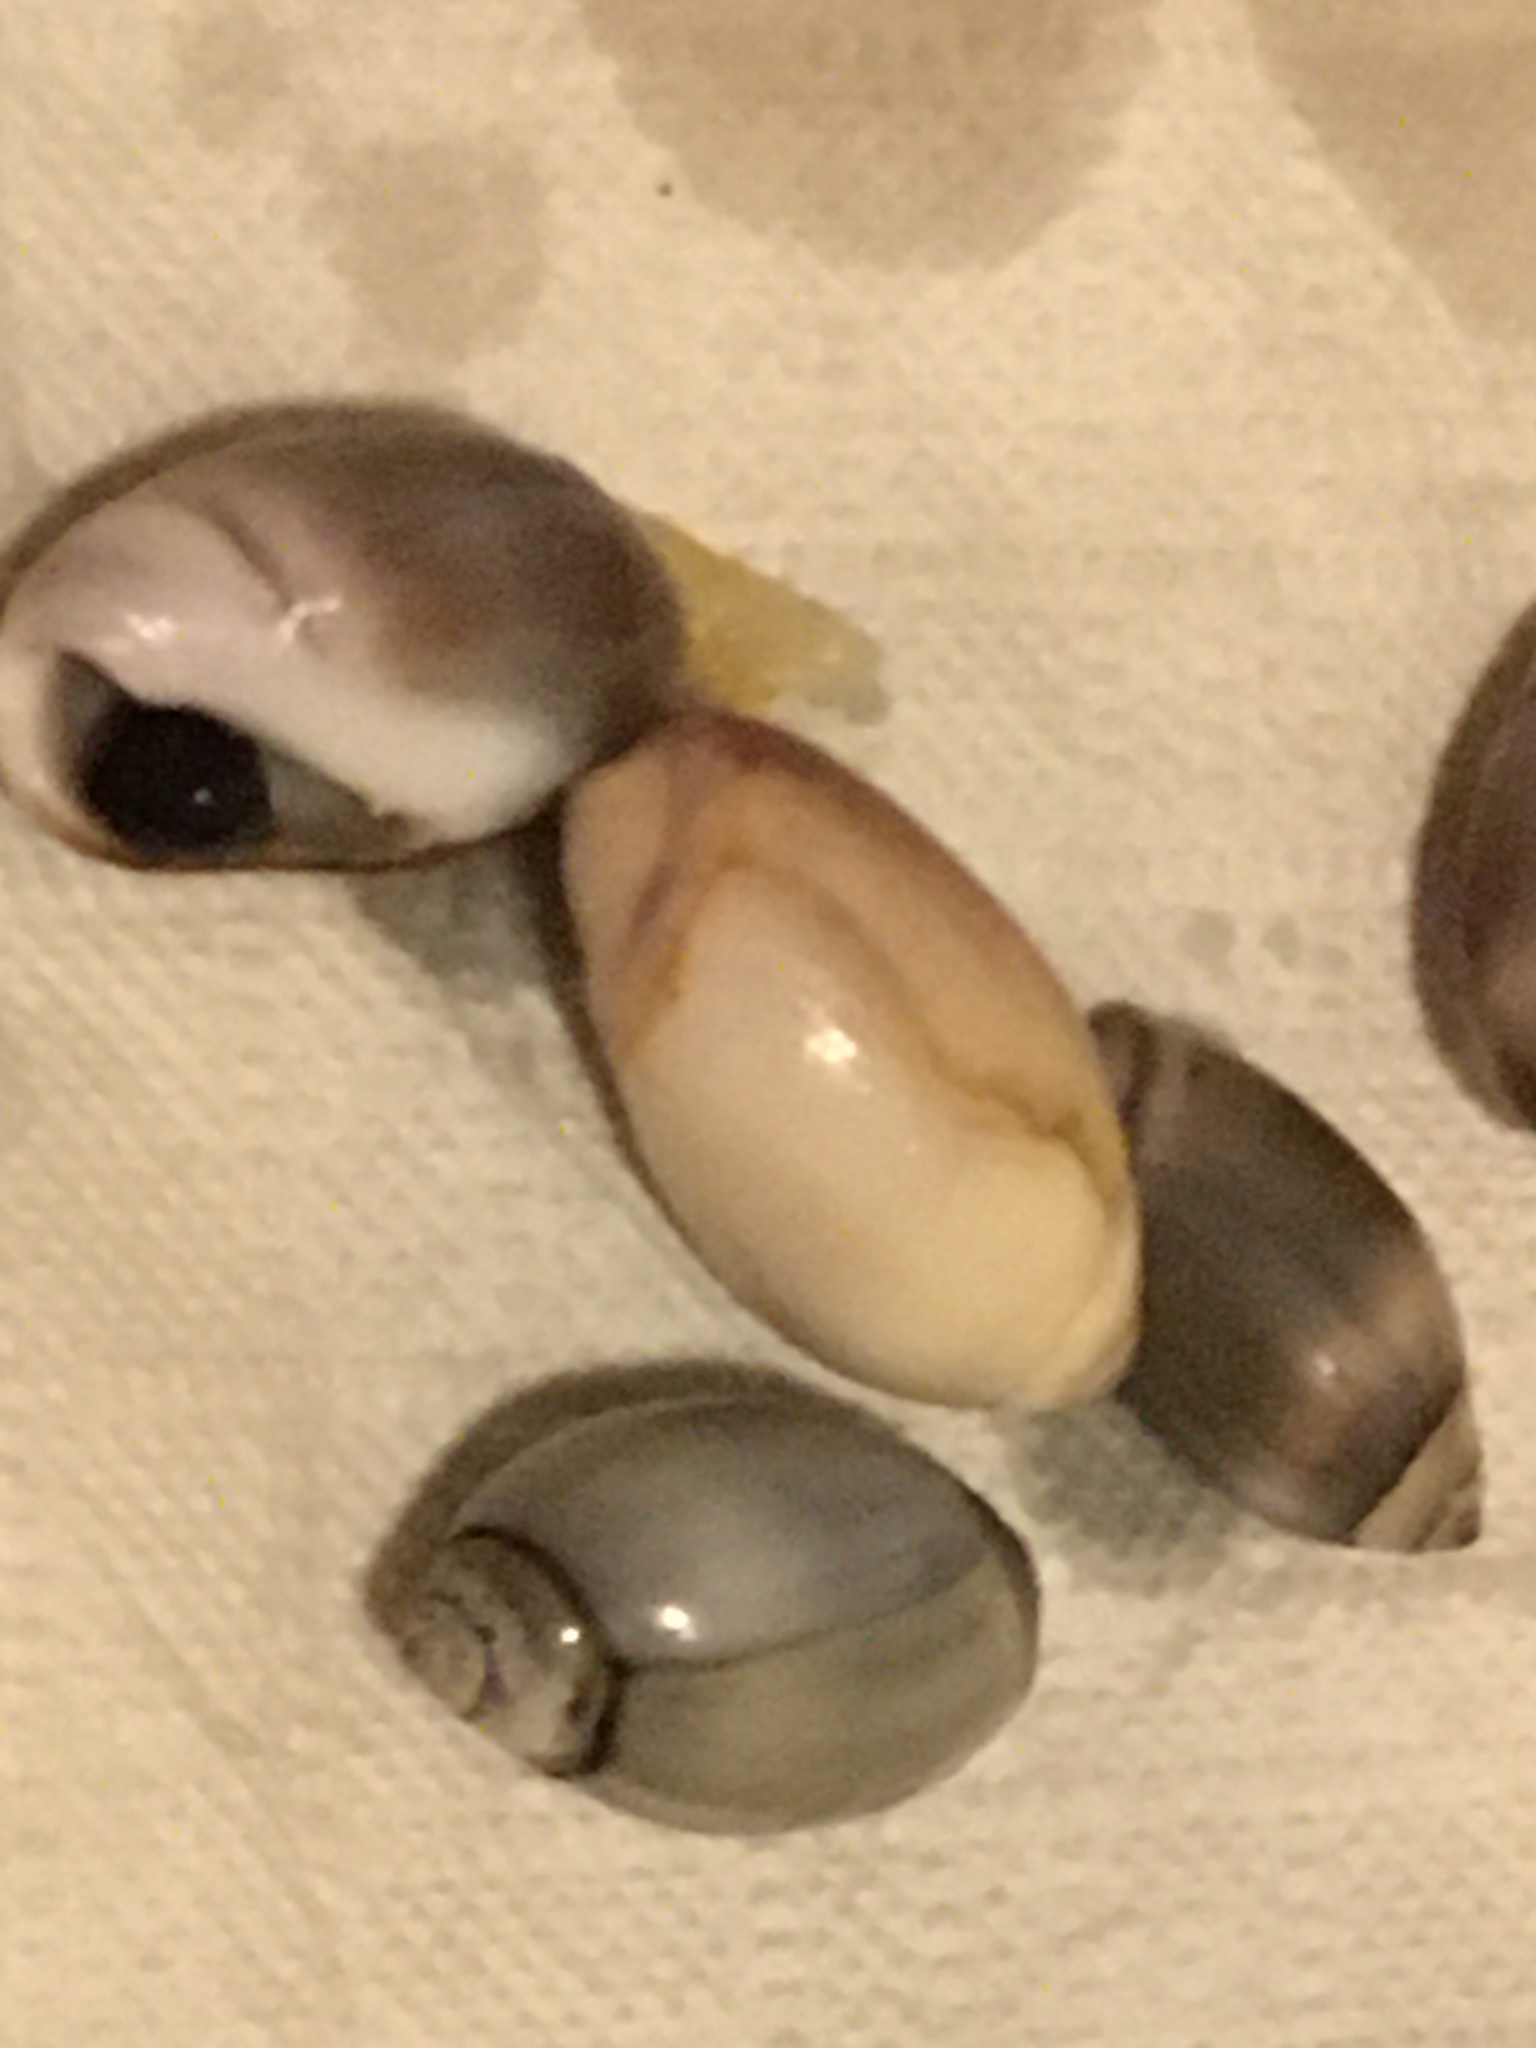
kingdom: Animalia
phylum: Mollusca
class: Gastropoda
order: Neogastropoda
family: Olividae
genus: Callianax
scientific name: Callianax biplicata
